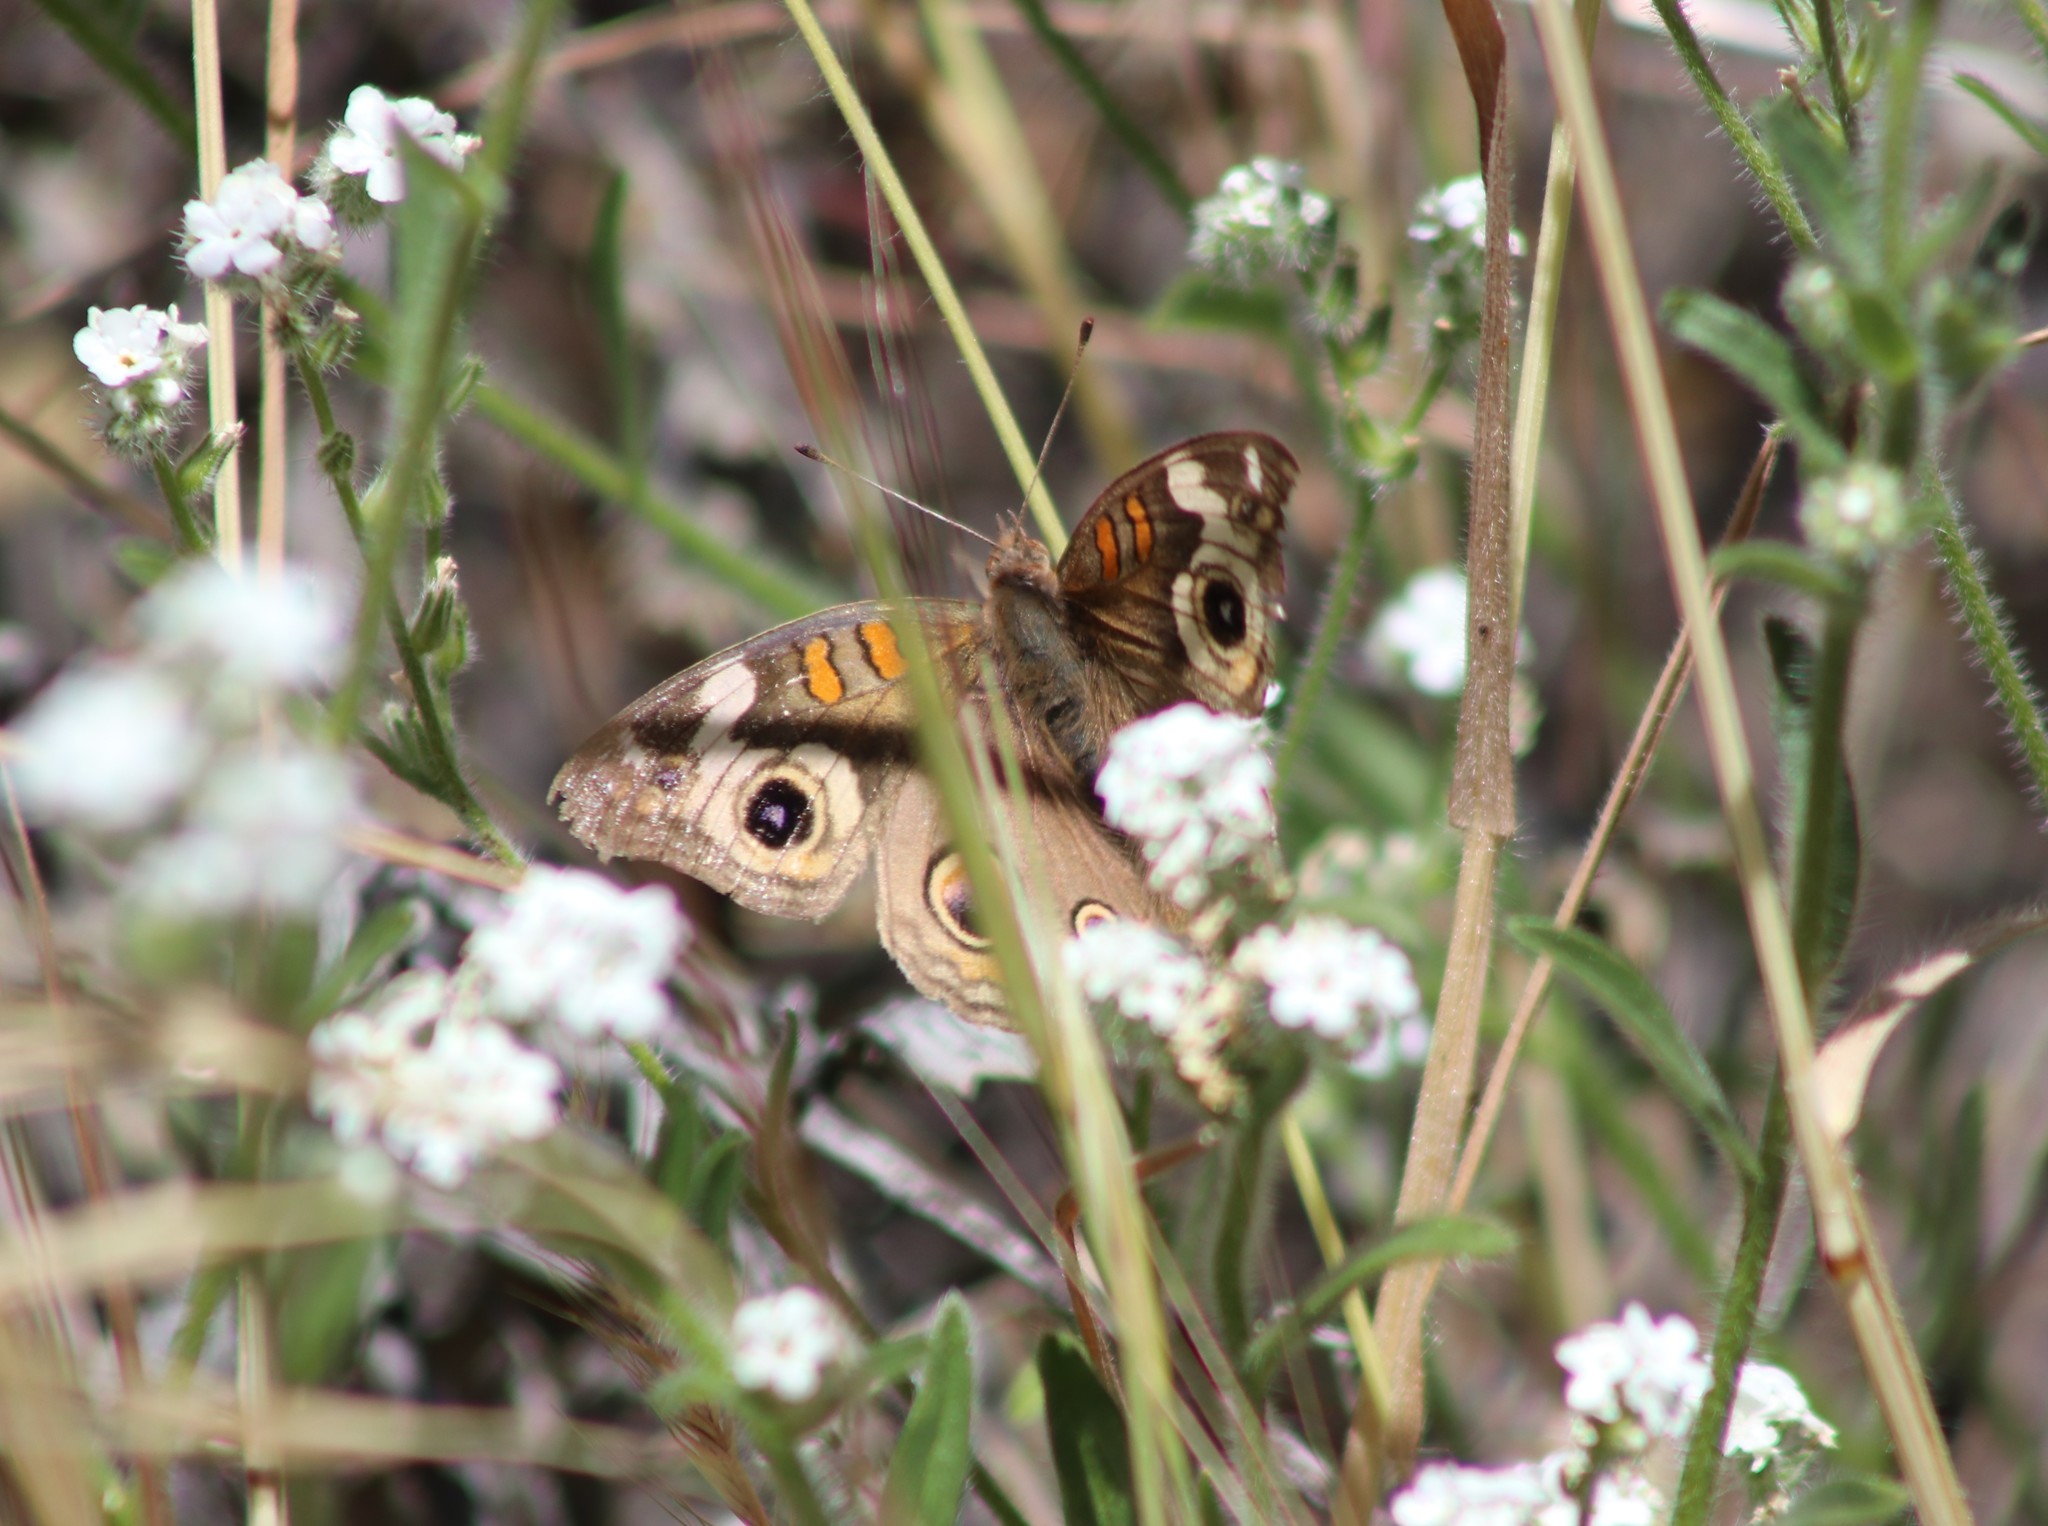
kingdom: Animalia
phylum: Arthropoda
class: Insecta
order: Lepidoptera
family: Nymphalidae
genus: Junonia
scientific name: Junonia grisea
